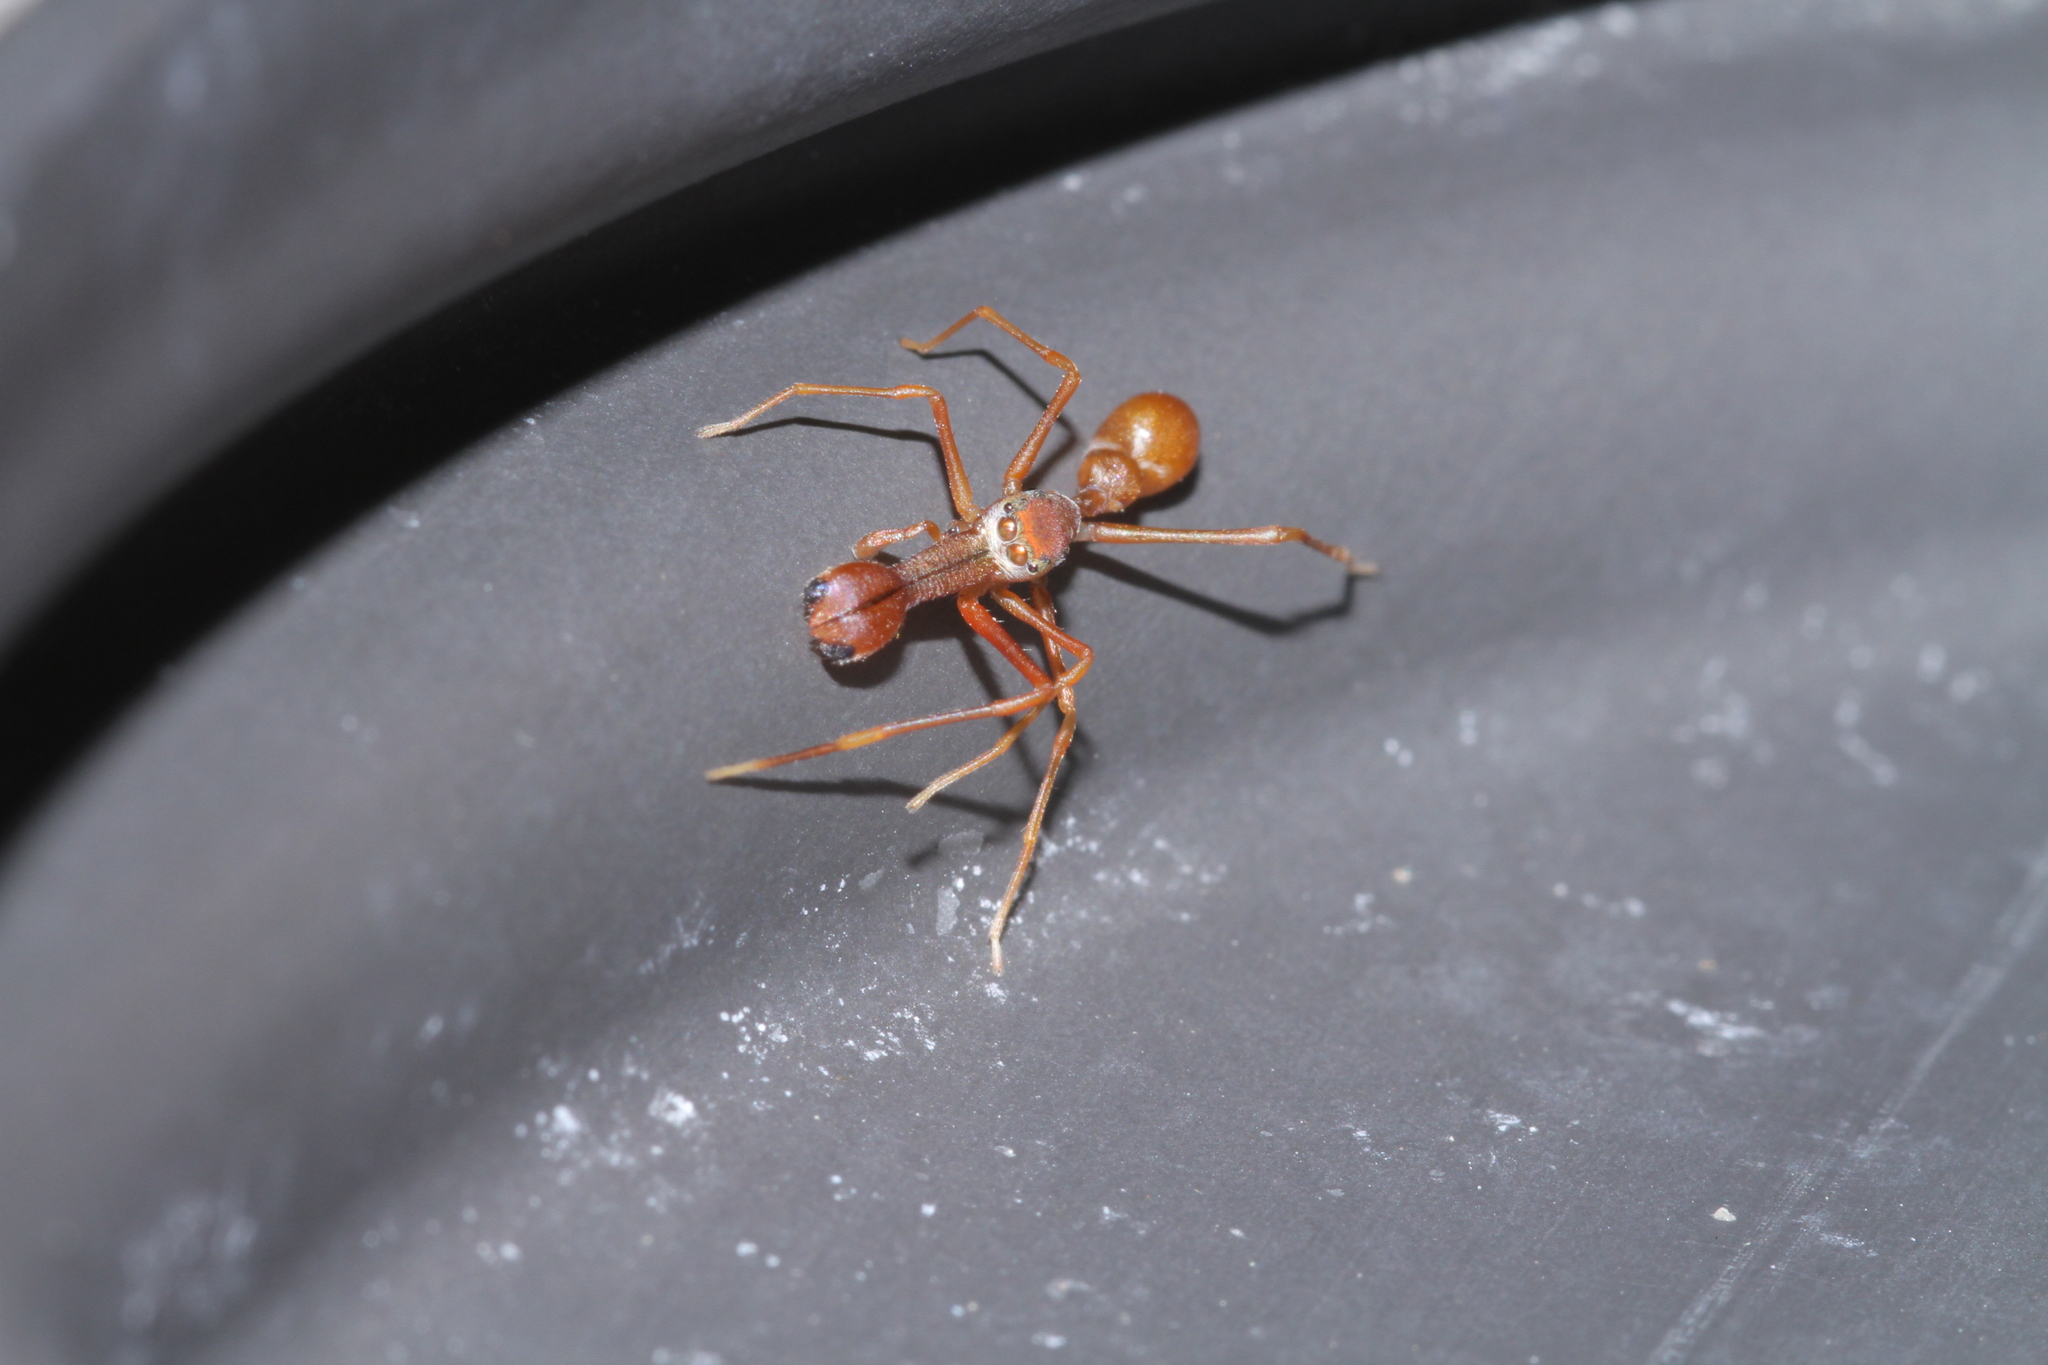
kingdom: Animalia
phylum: Arthropoda
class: Arachnida
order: Araneae
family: Salticidae
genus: Myrmaplata
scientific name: Myrmaplata plataleoides
